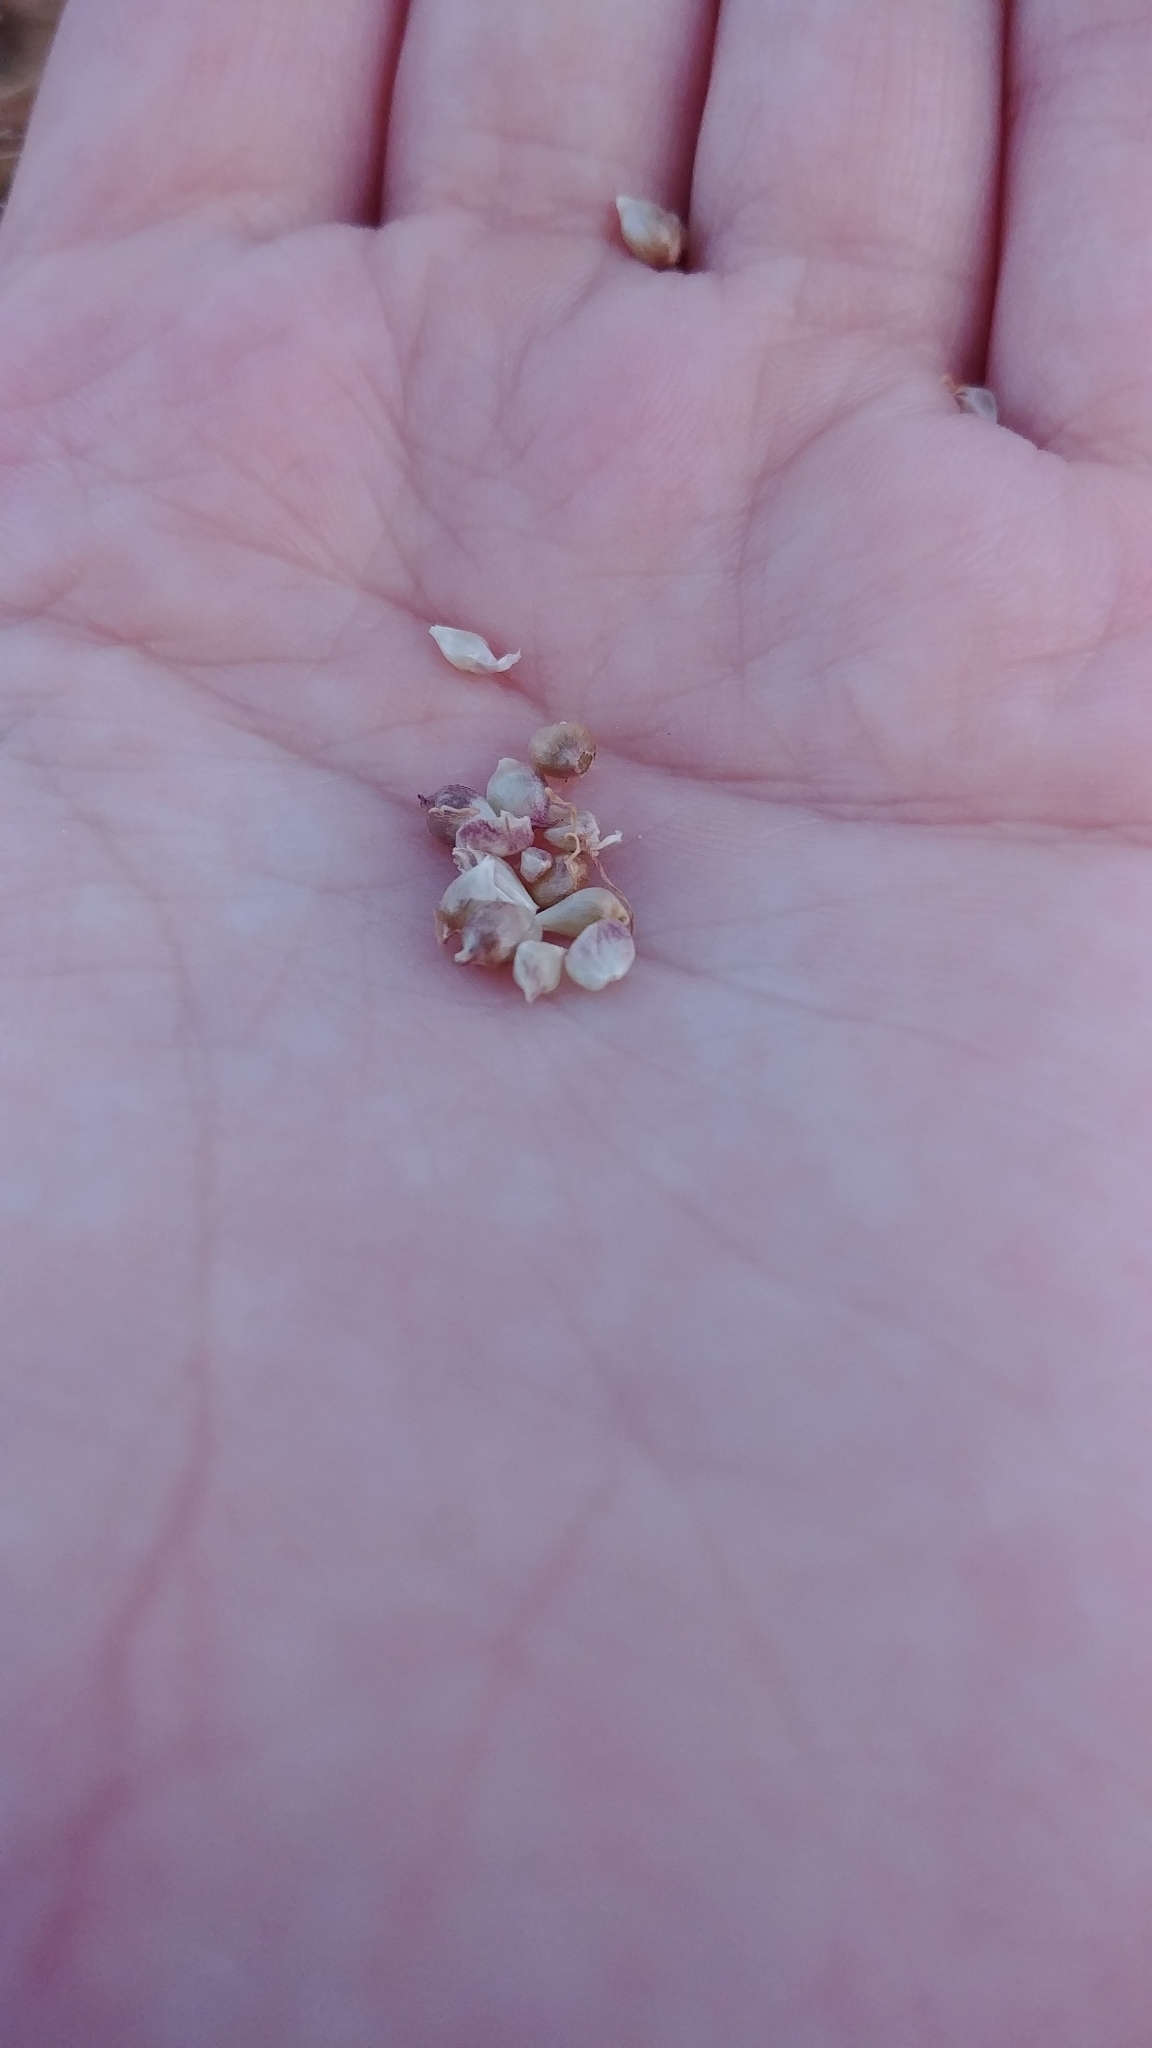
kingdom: Plantae
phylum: Tracheophyta
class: Liliopsida
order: Asparagales
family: Amaryllidaceae
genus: Allium
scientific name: Allium vineale
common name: Crow garlic
